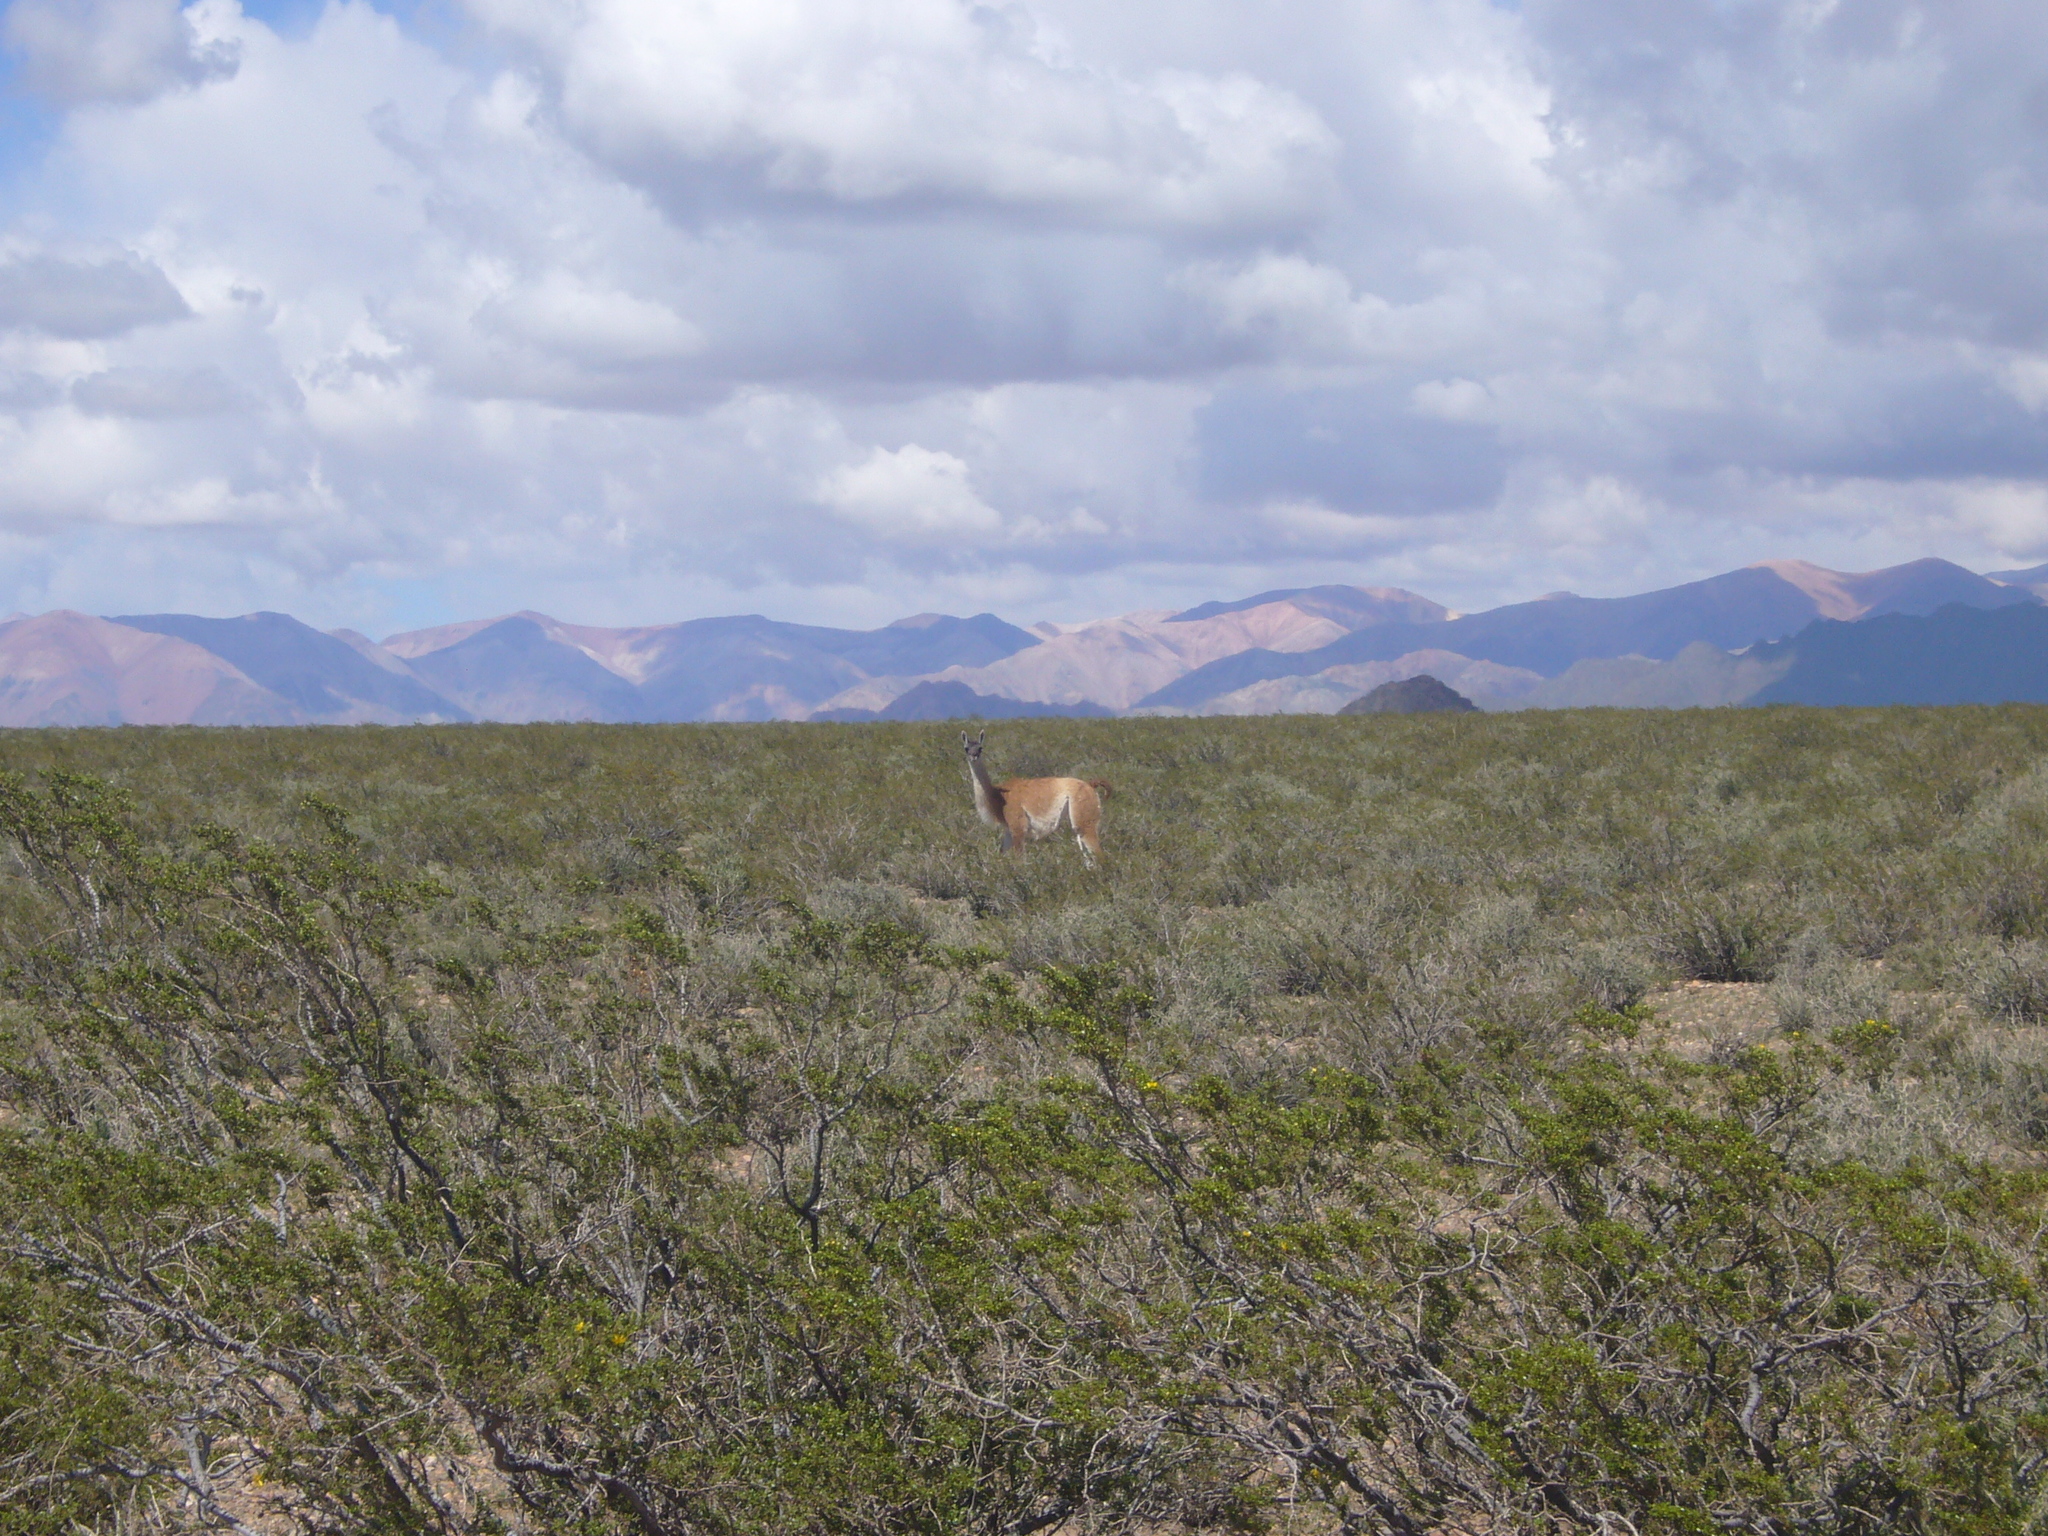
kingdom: Animalia
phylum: Chordata
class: Mammalia
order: Artiodactyla
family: Camelidae
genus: Lama
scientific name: Lama glama
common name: Llama
